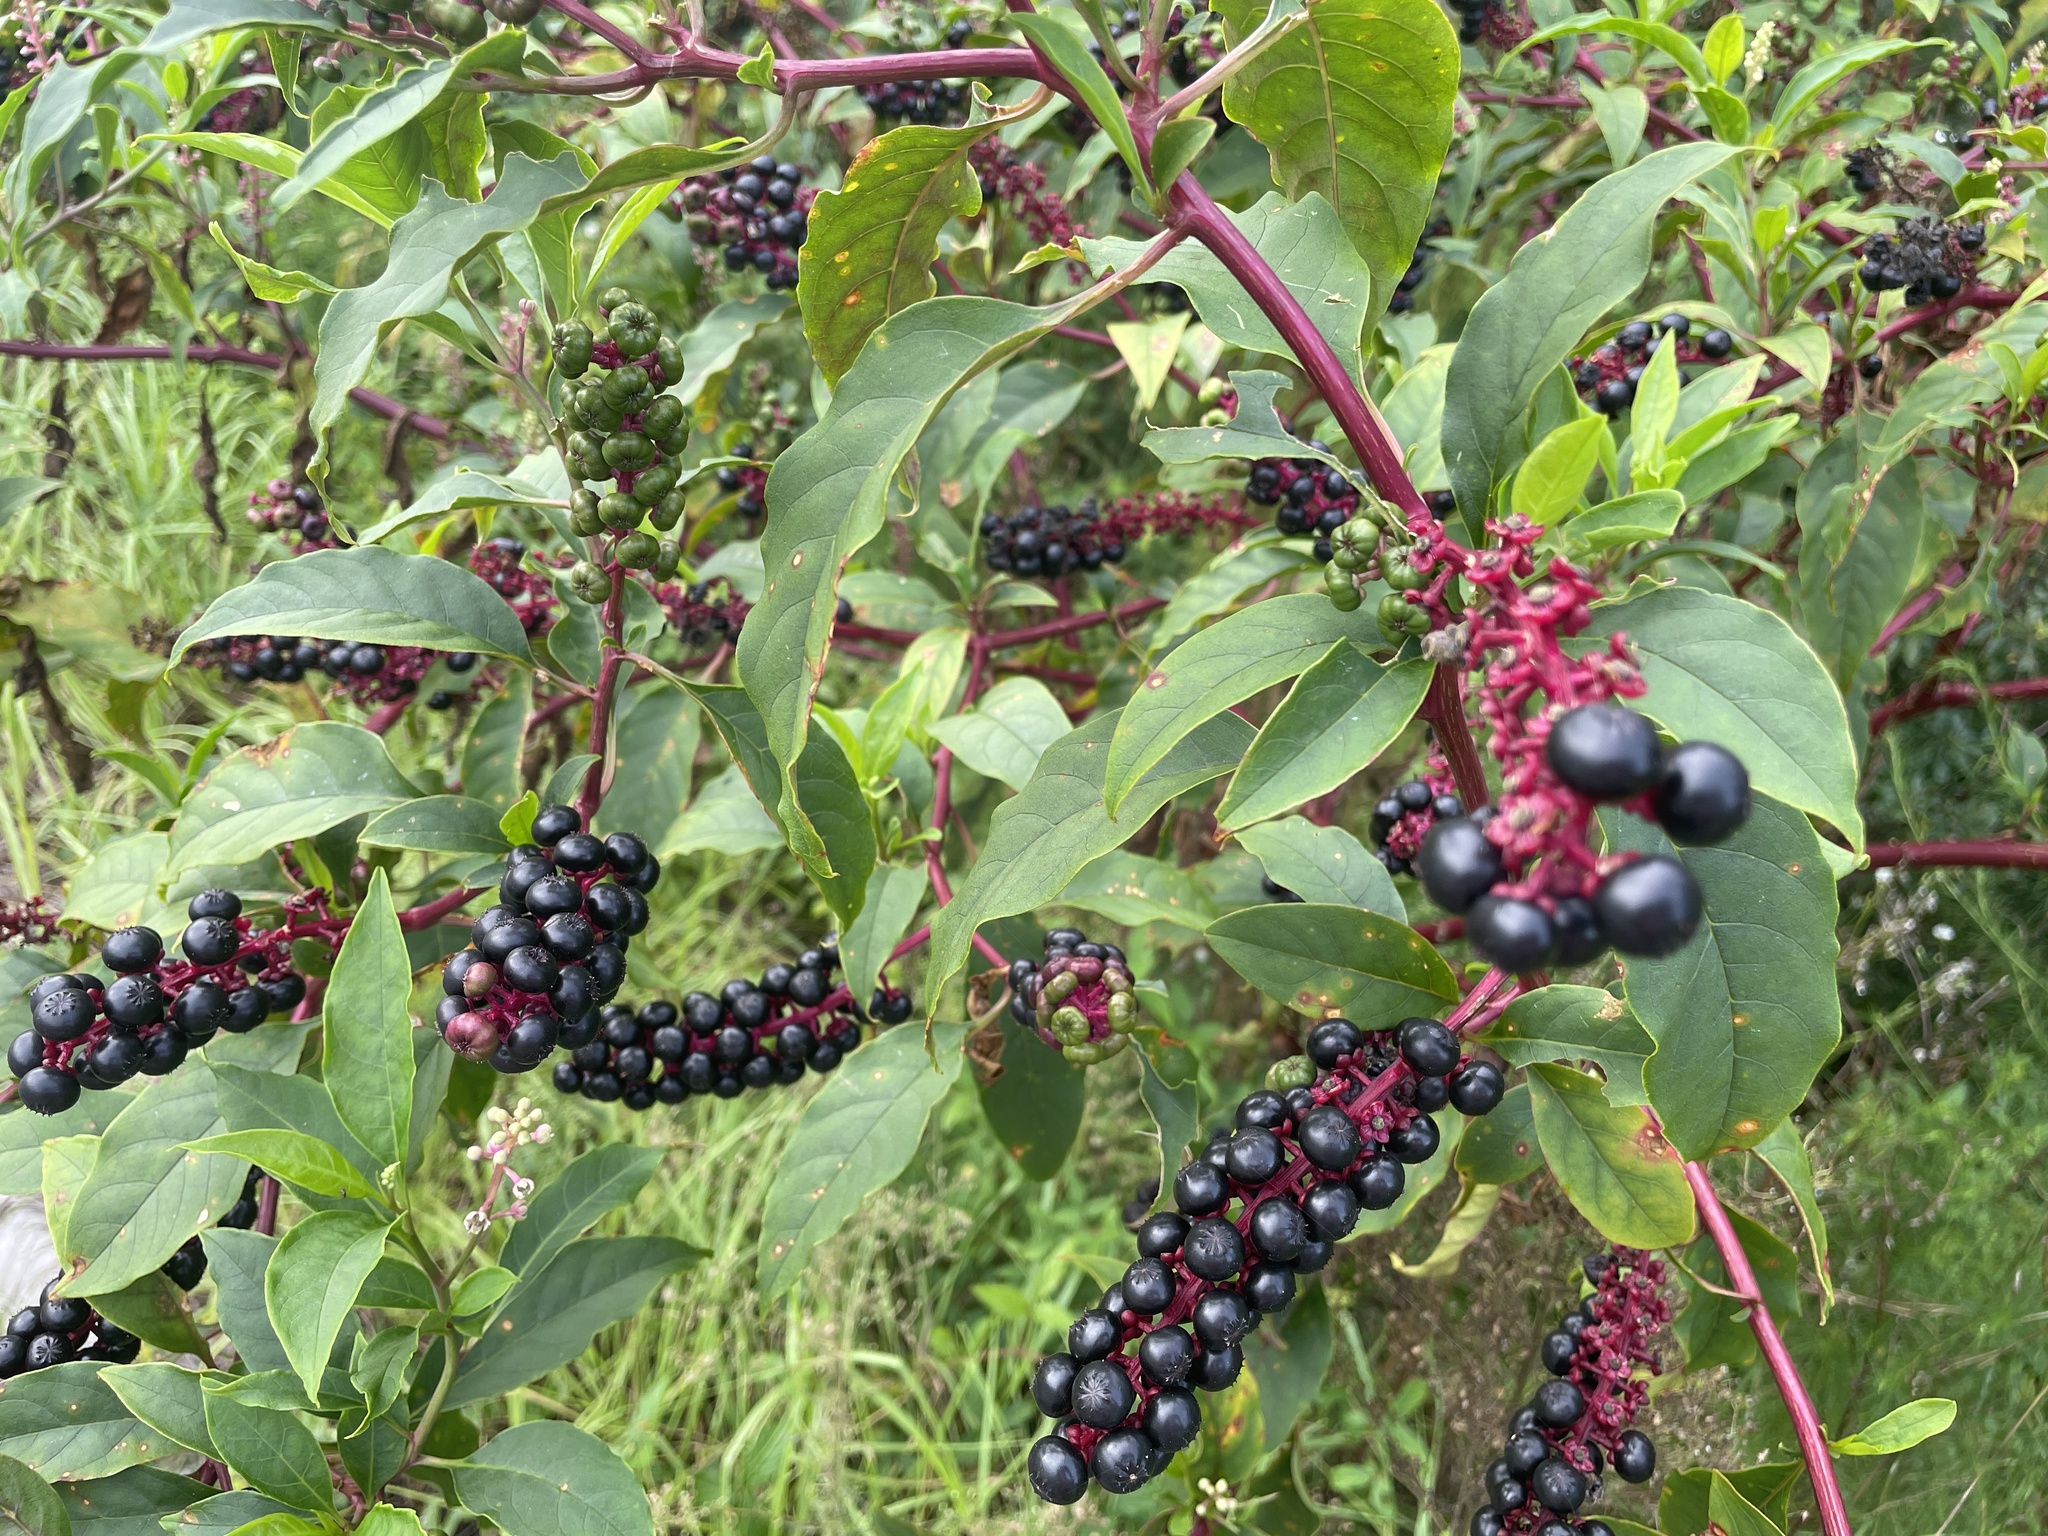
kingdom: Plantae
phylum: Tracheophyta
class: Magnoliopsida
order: Caryophyllales
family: Phytolaccaceae
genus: Phytolacca
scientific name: Phytolacca americana
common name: American pokeweed
